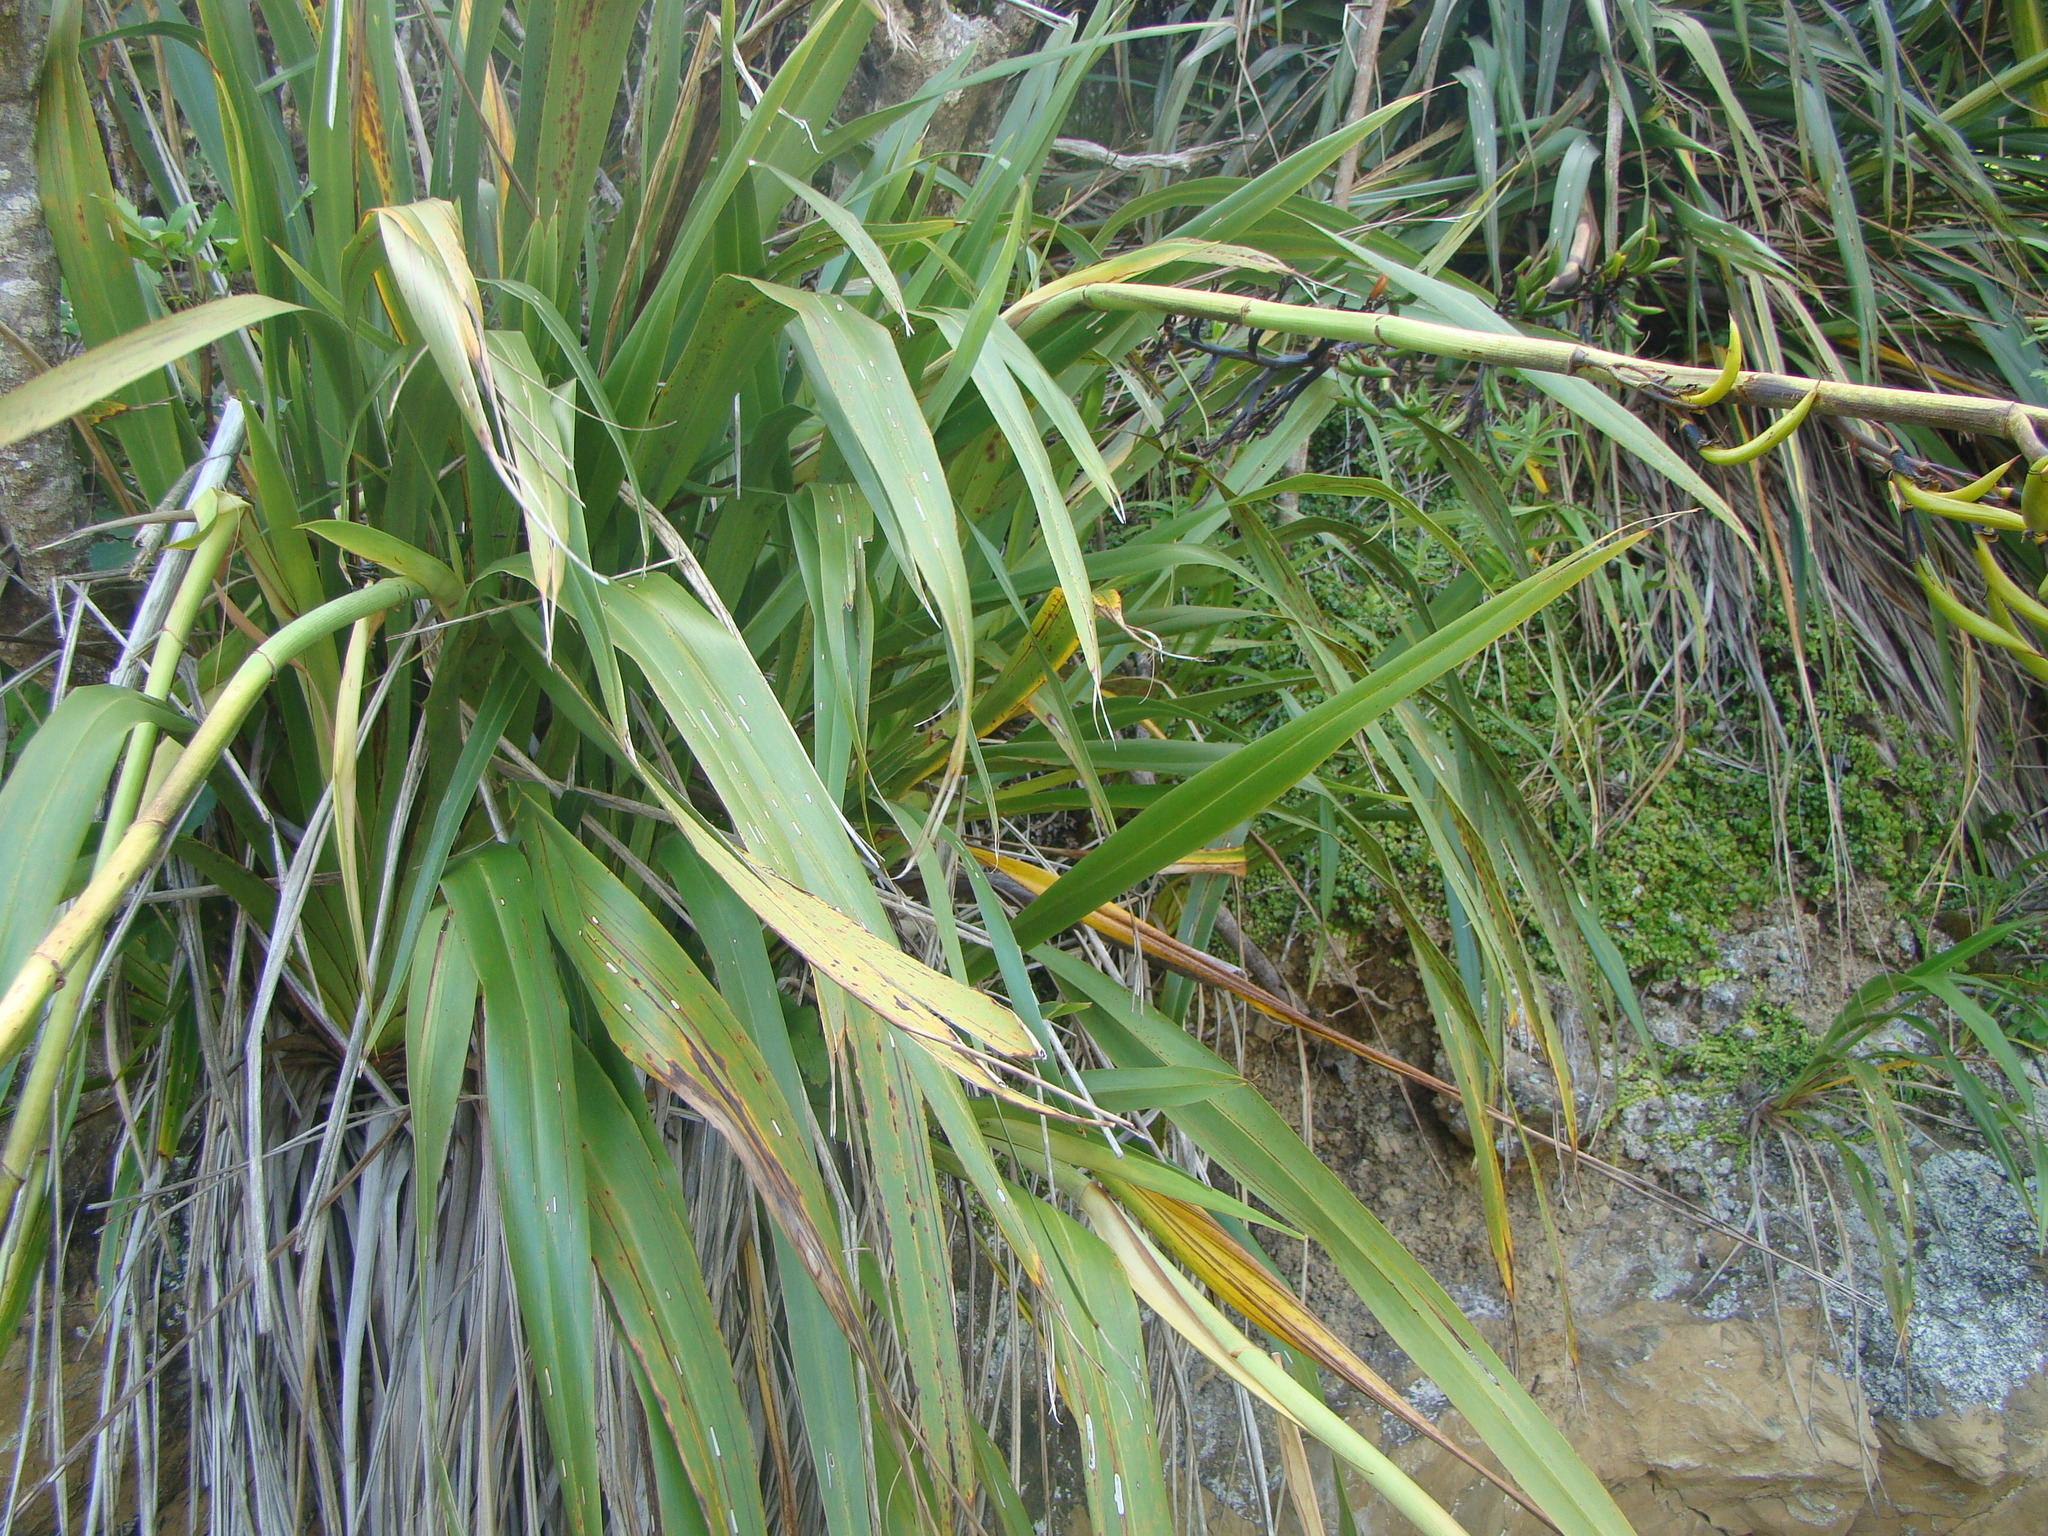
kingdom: Plantae
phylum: Tracheophyta
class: Liliopsida
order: Asparagales
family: Asphodelaceae
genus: Phormium
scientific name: Phormium colensoi
